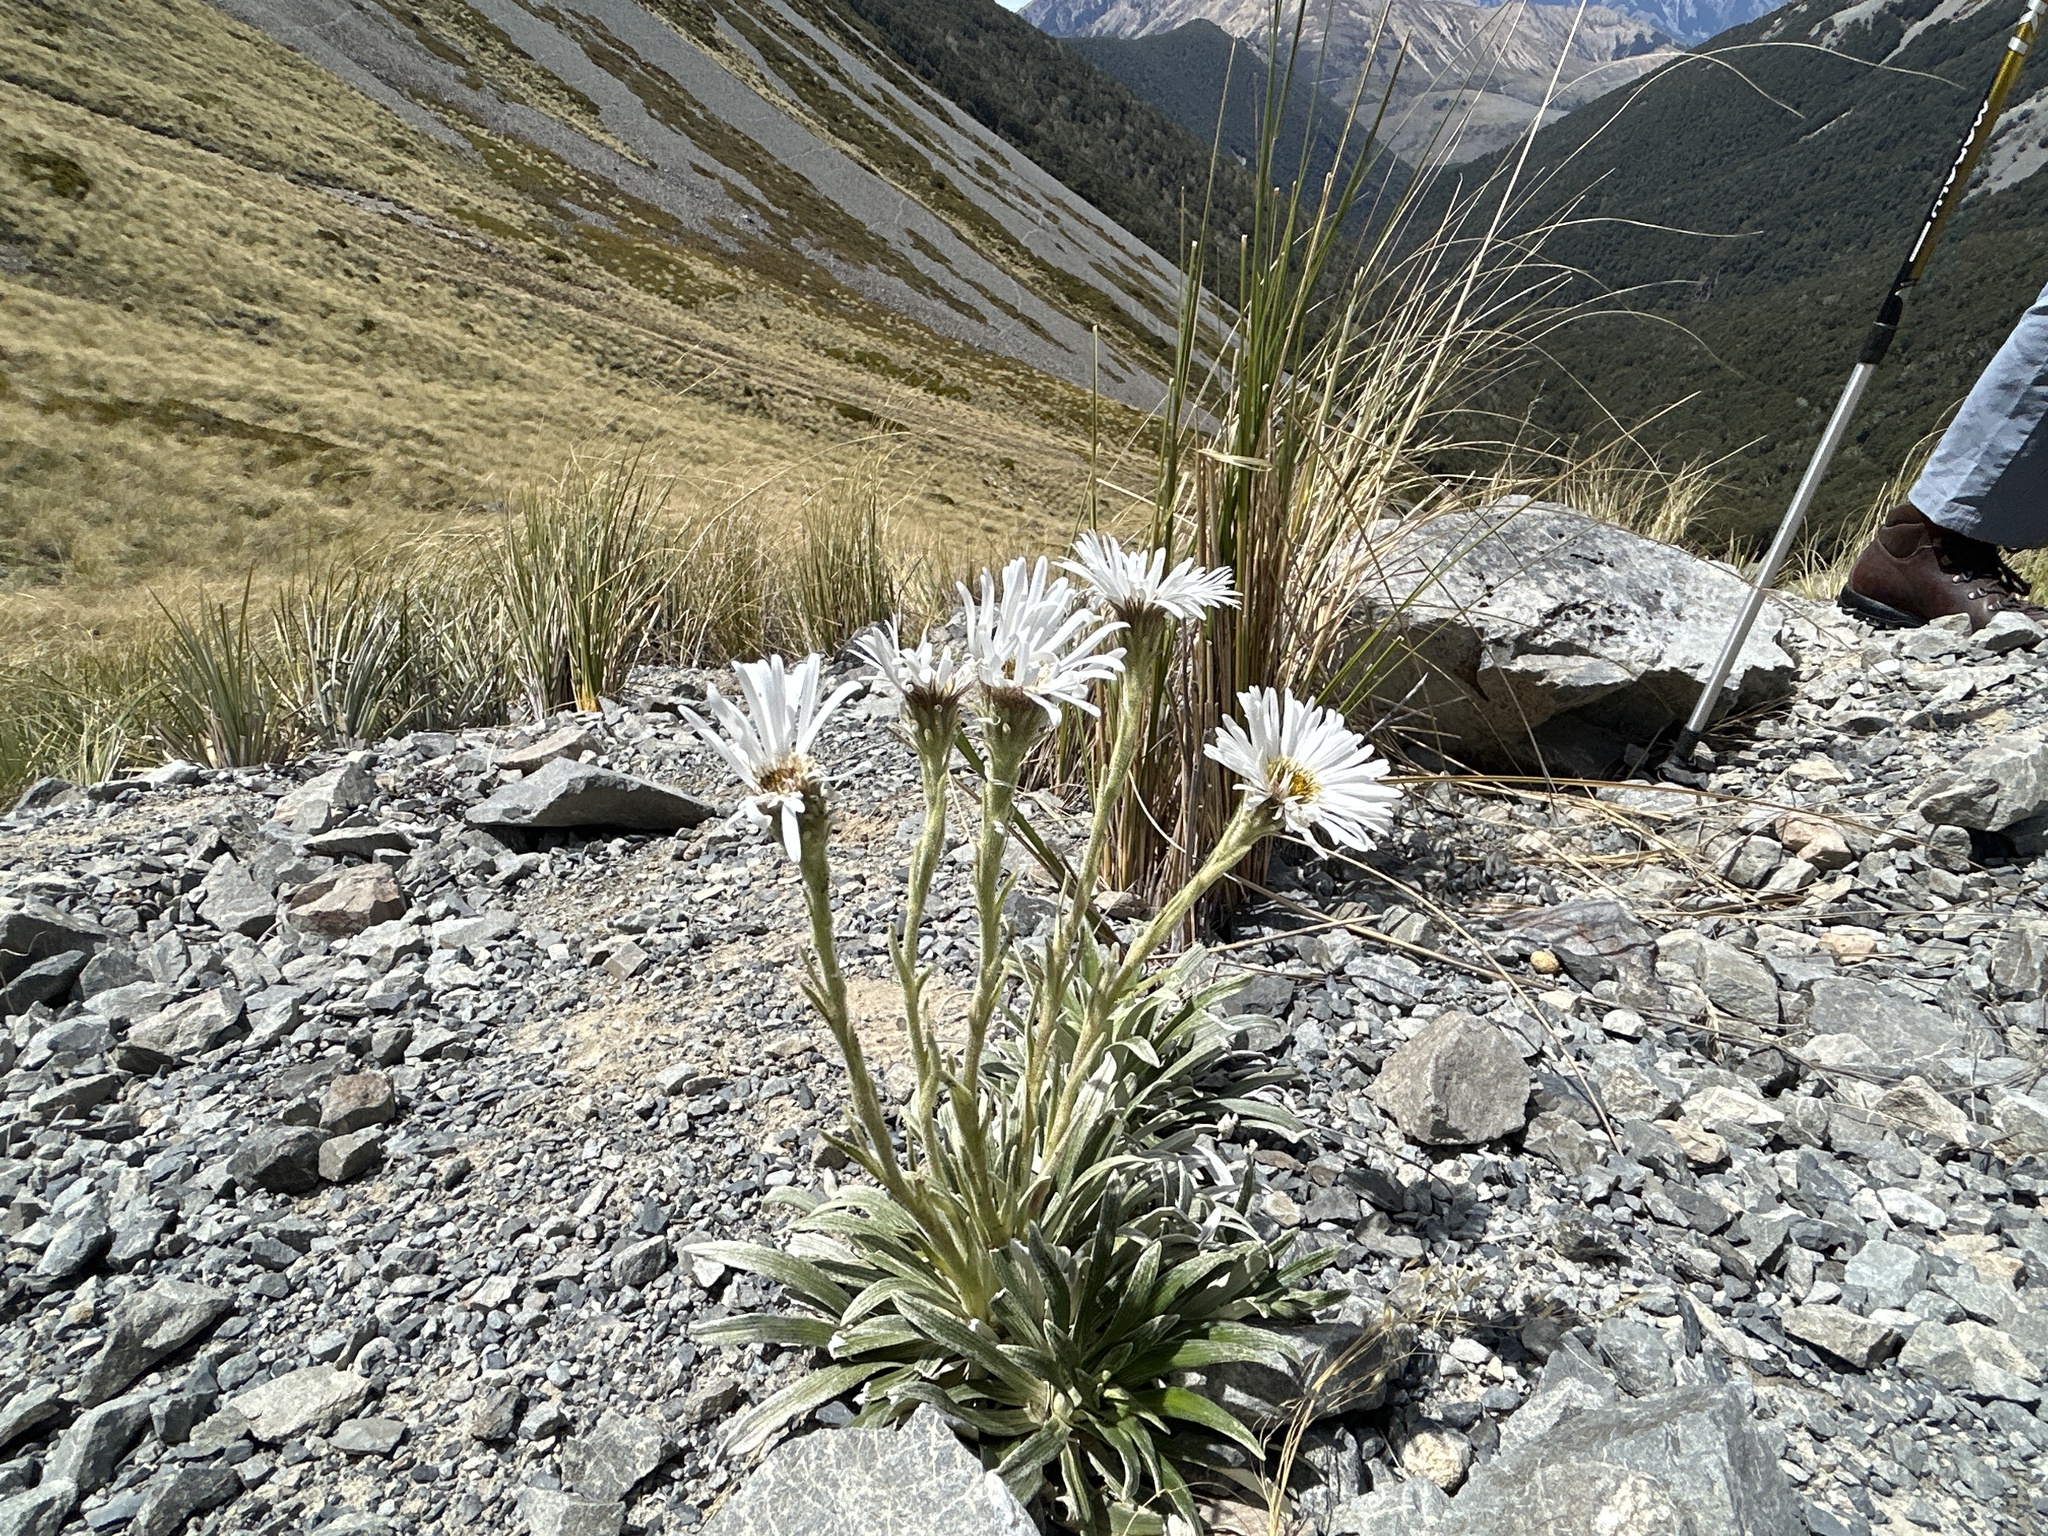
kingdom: Plantae
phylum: Tracheophyta
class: Magnoliopsida
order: Asterales
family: Asteraceae
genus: Celmisia
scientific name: Celmisia viscosa
